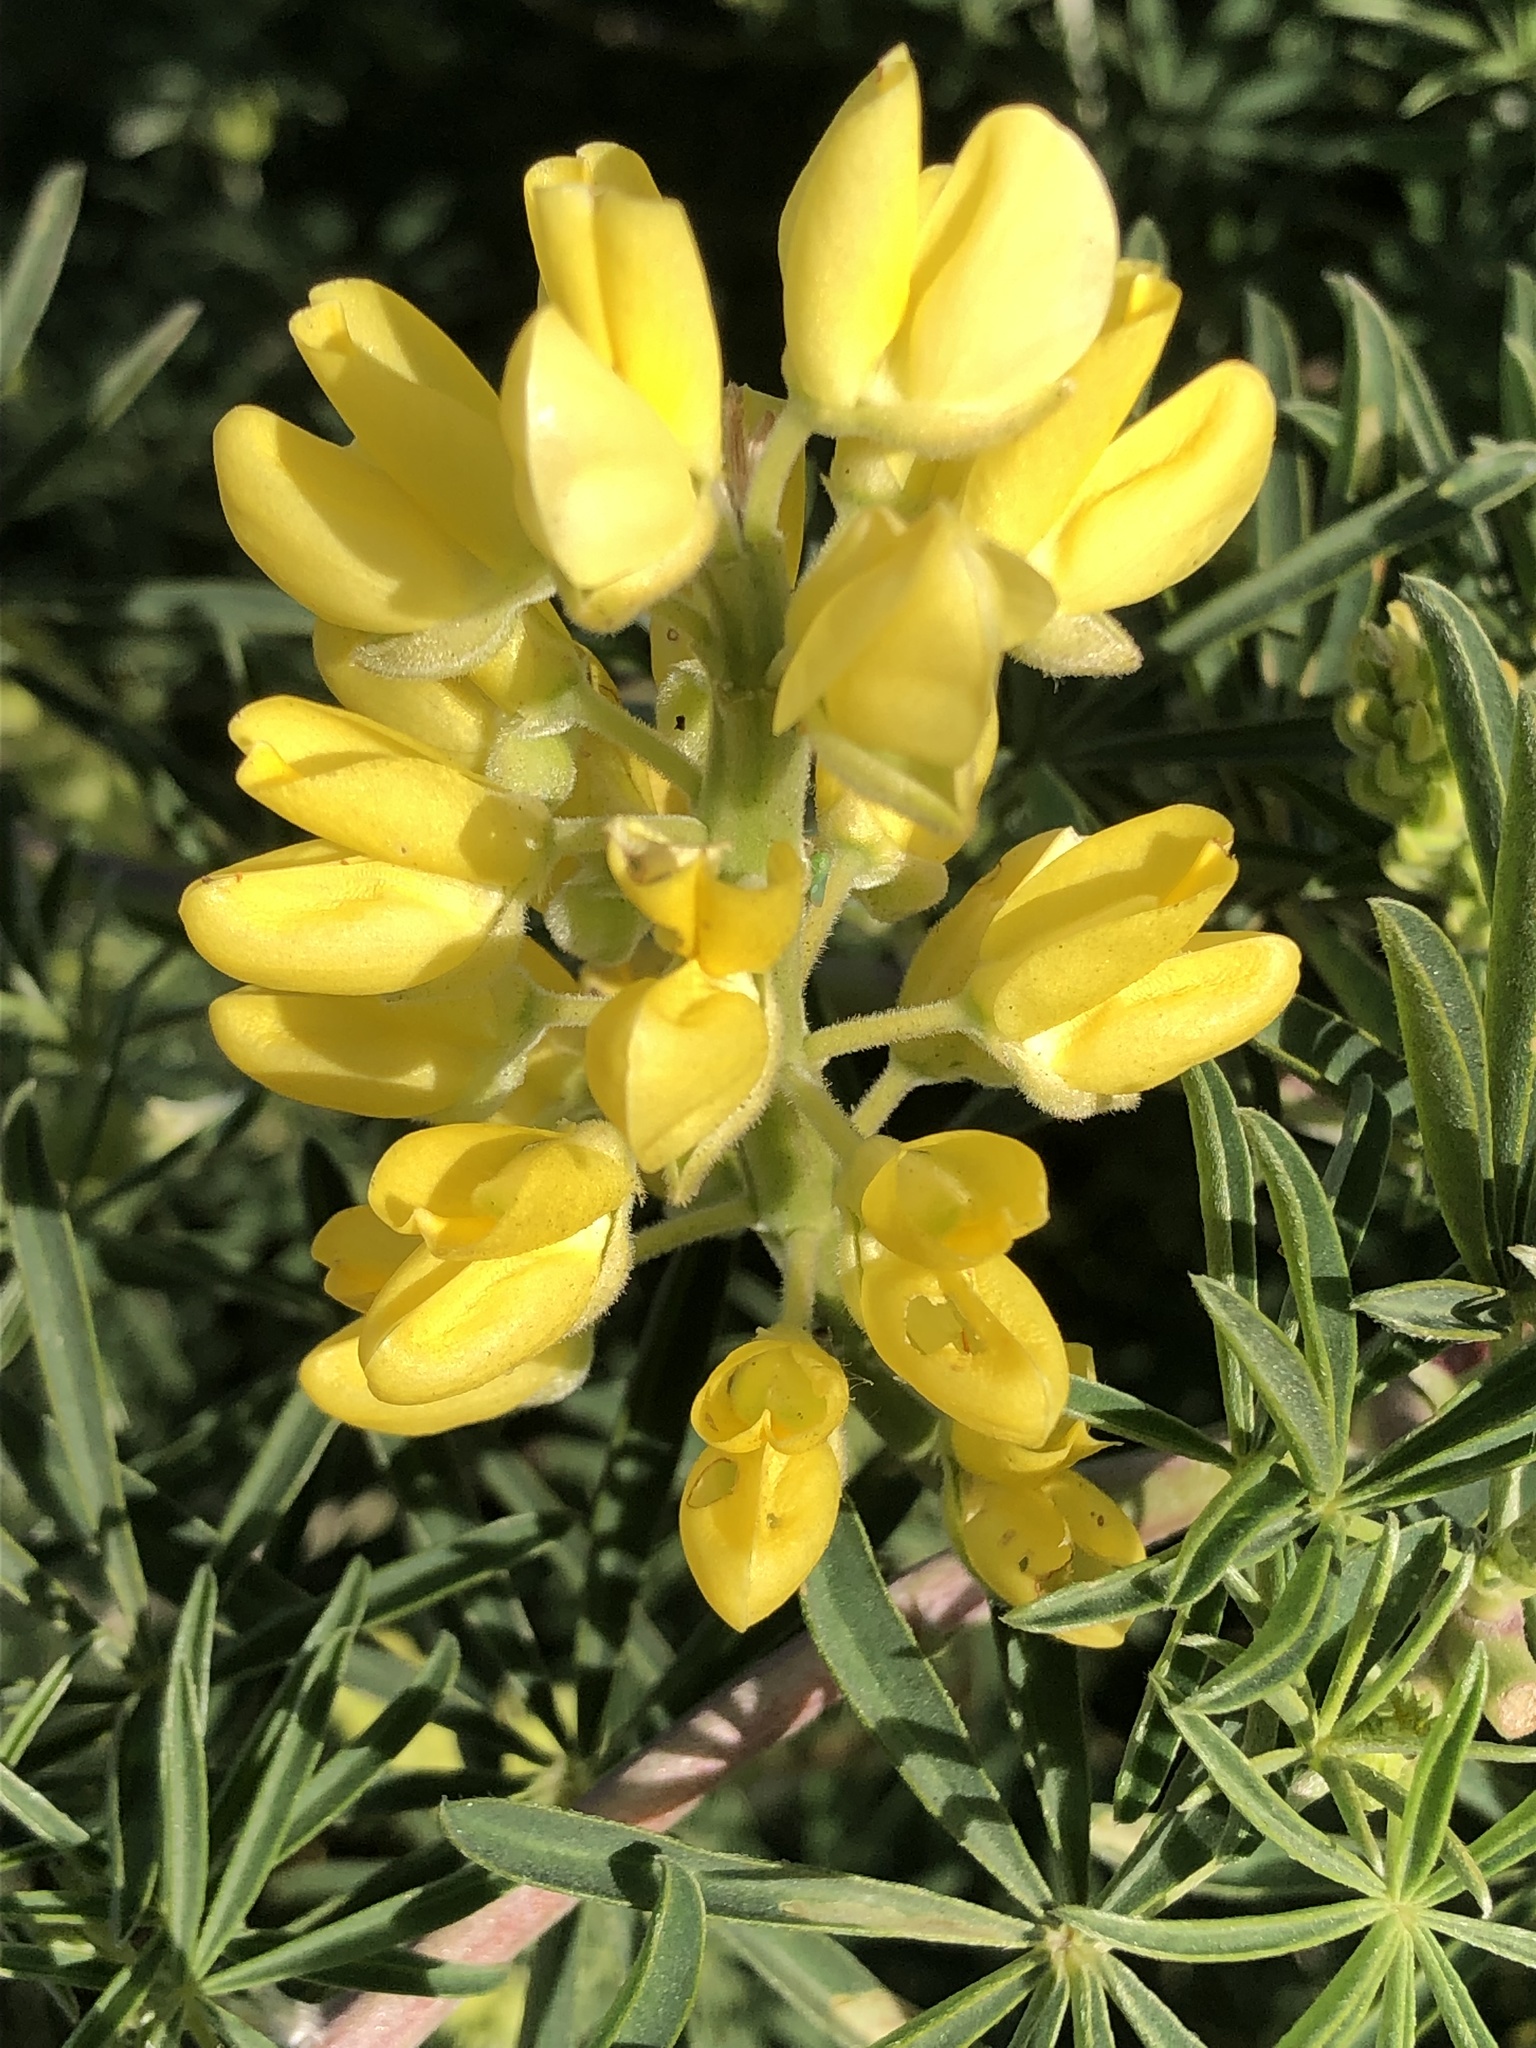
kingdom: Plantae
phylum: Tracheophyta
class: Magnoliopsida
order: Fabales
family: Fabaceae
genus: Lupinus
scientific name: Lupinus arboreus
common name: Yellow bush lupine
